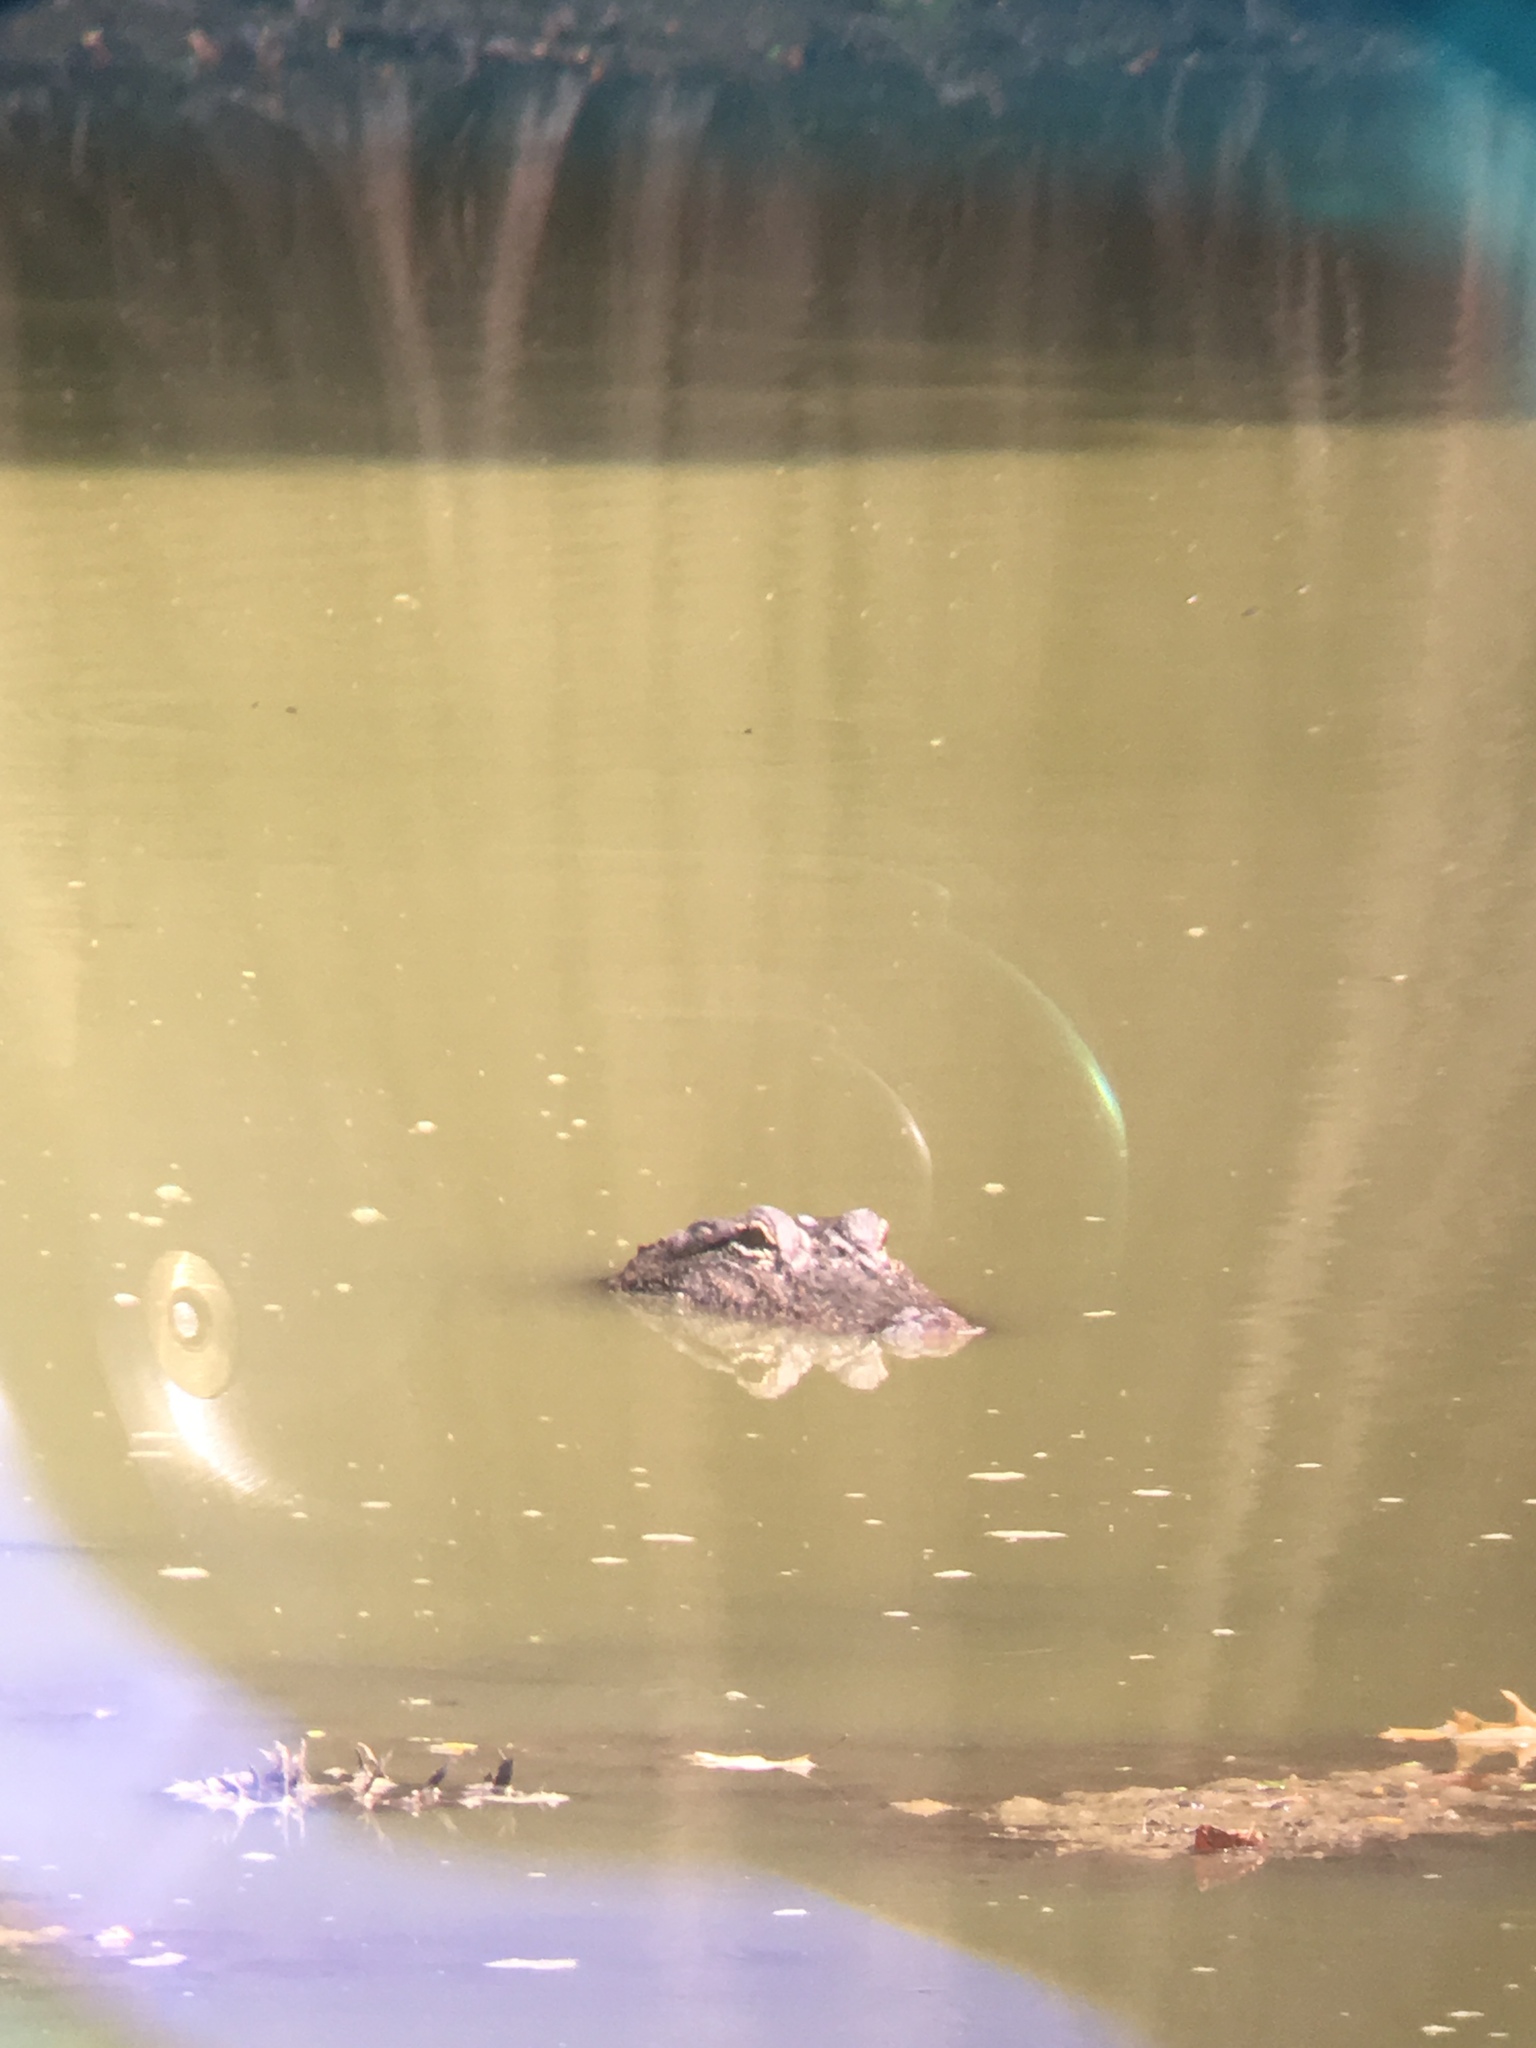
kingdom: Animalia
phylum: Chordata
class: Crocodylia
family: Alligatoridae
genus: Alligator
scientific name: Alligator mississippiensis
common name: American alligator
